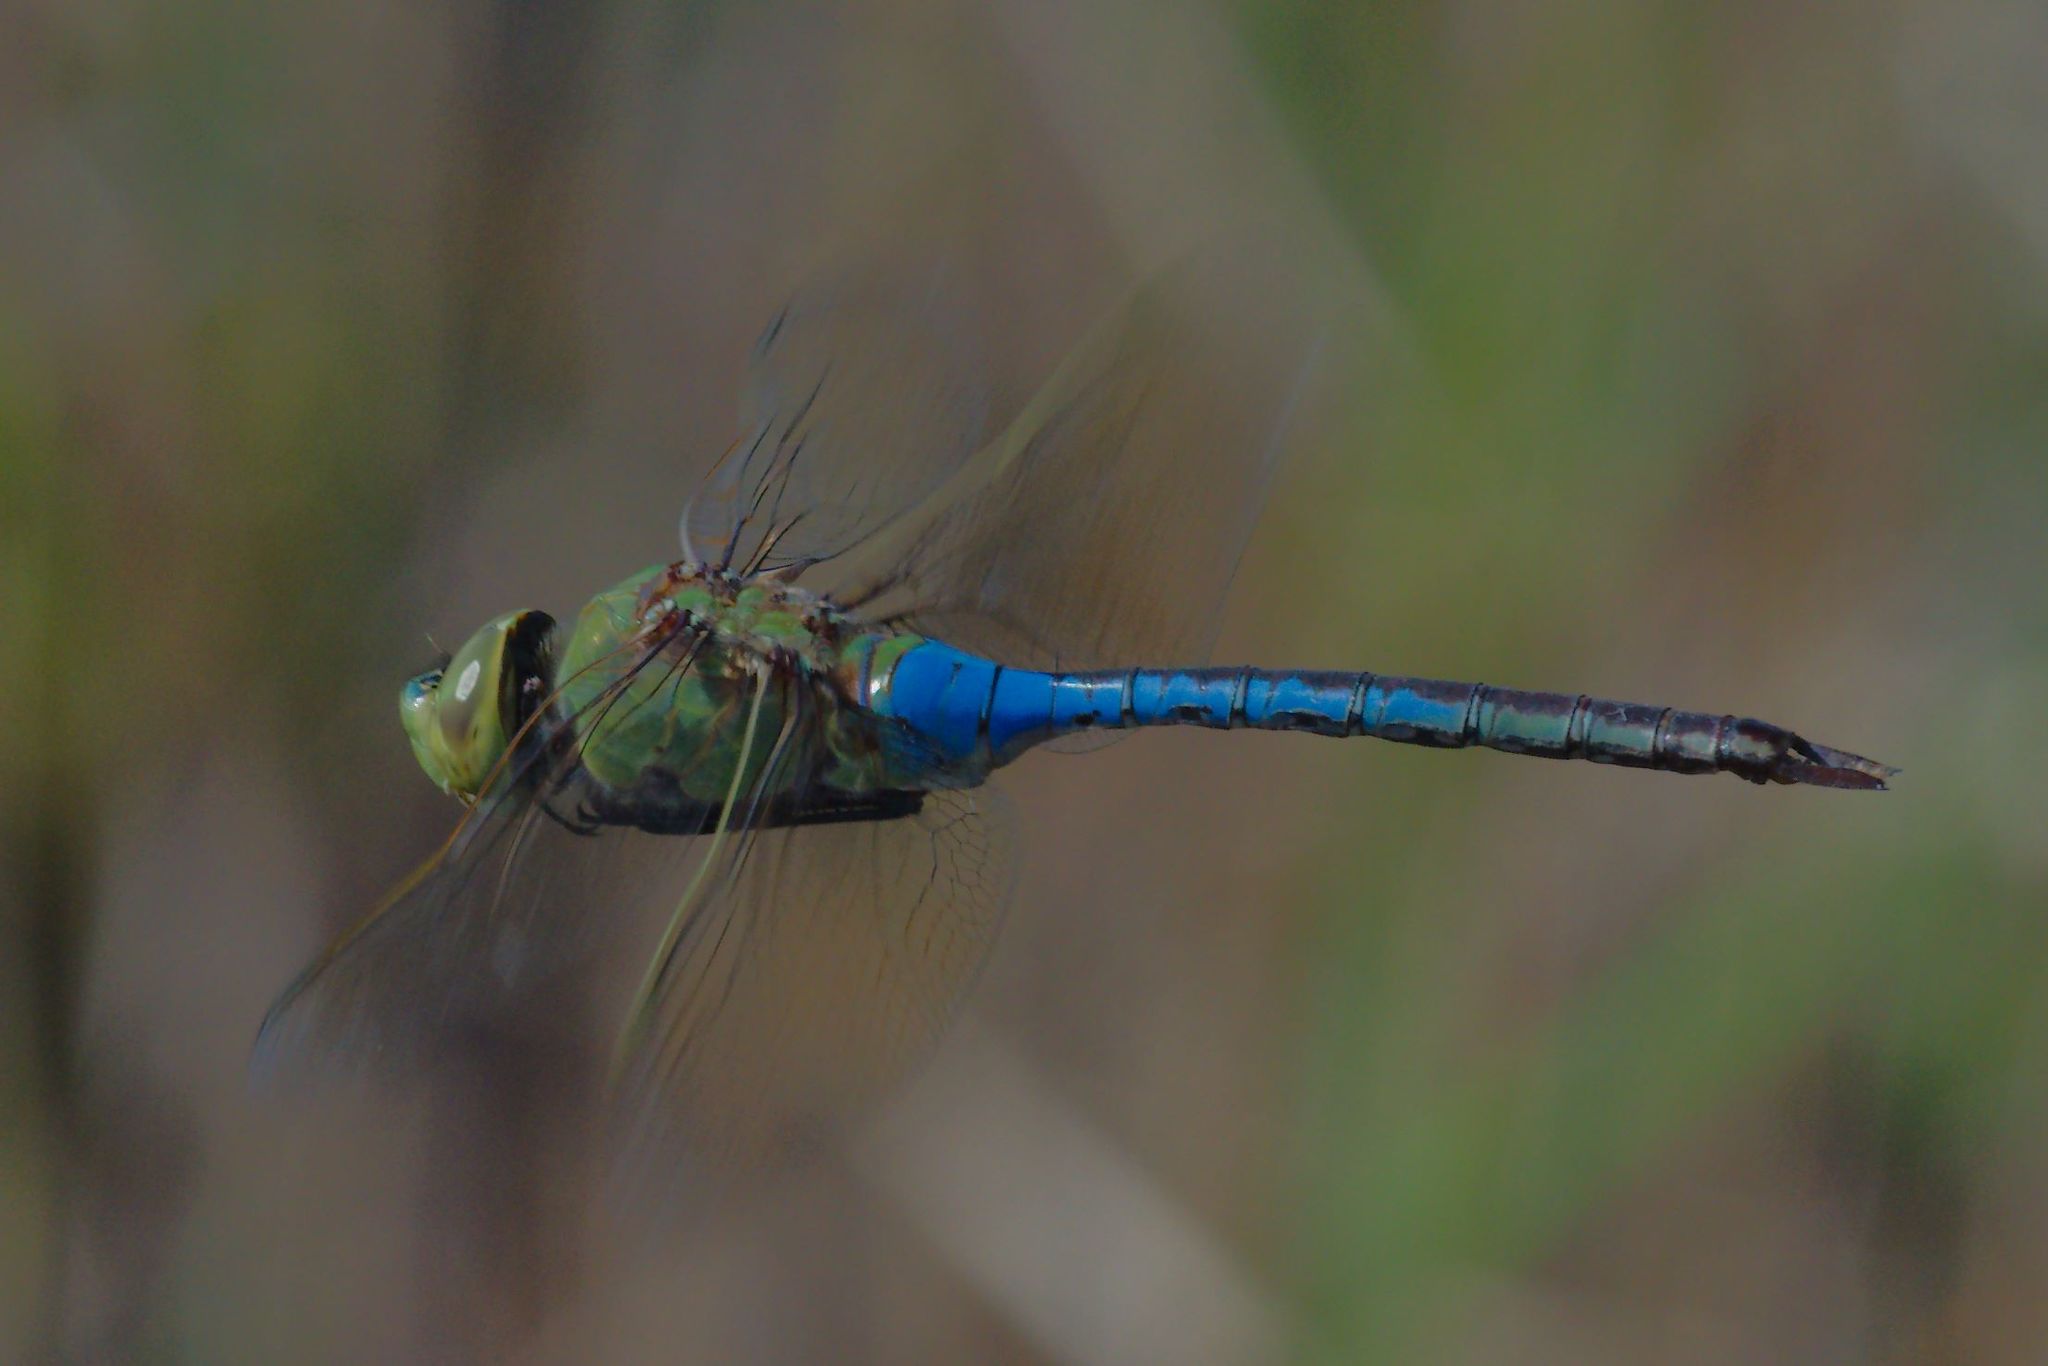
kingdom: Animalia
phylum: Arthropoda
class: Insecta
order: Odonata
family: Aeshnidae
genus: Anax
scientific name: Anax junius
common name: Common green darner
